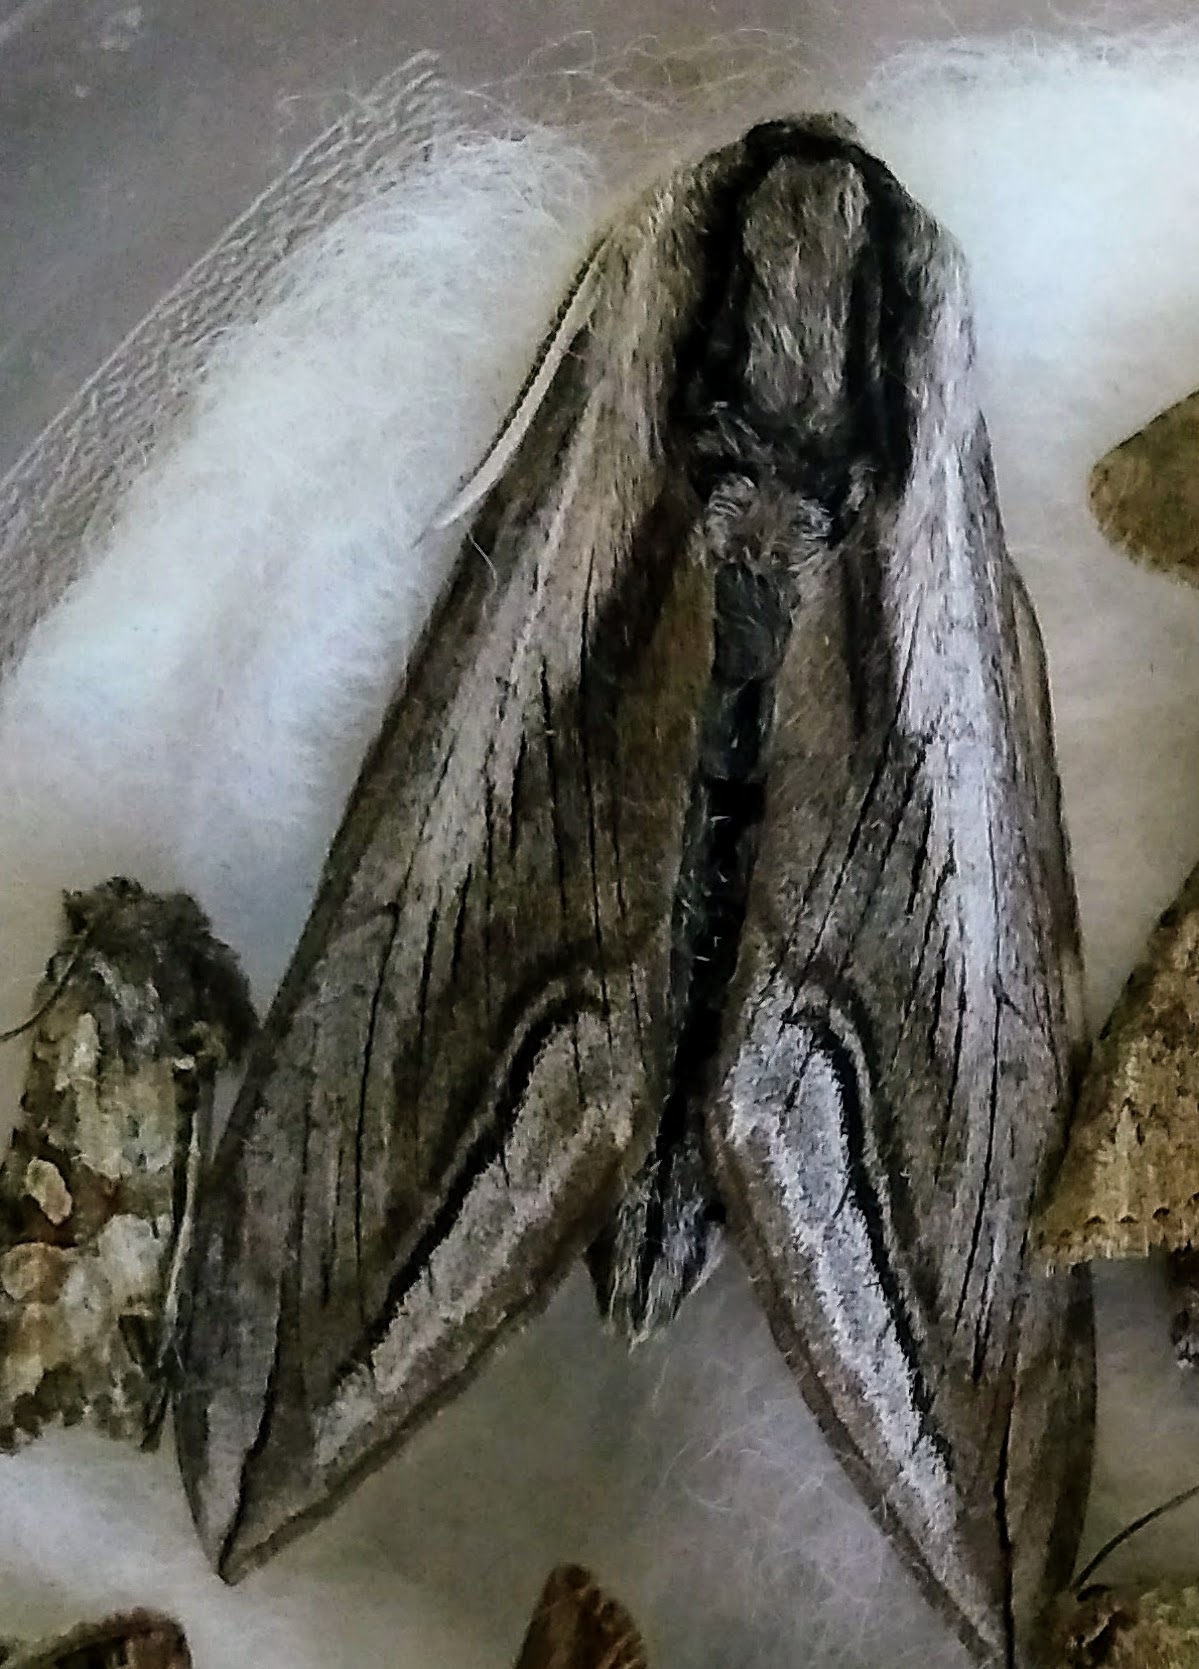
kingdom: Animalia
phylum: Arthropoda
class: Insecta
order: Lepidoptera
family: Sphingidae
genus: Sphinx
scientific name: Sphinx vashti
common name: Snowberry sphinx
